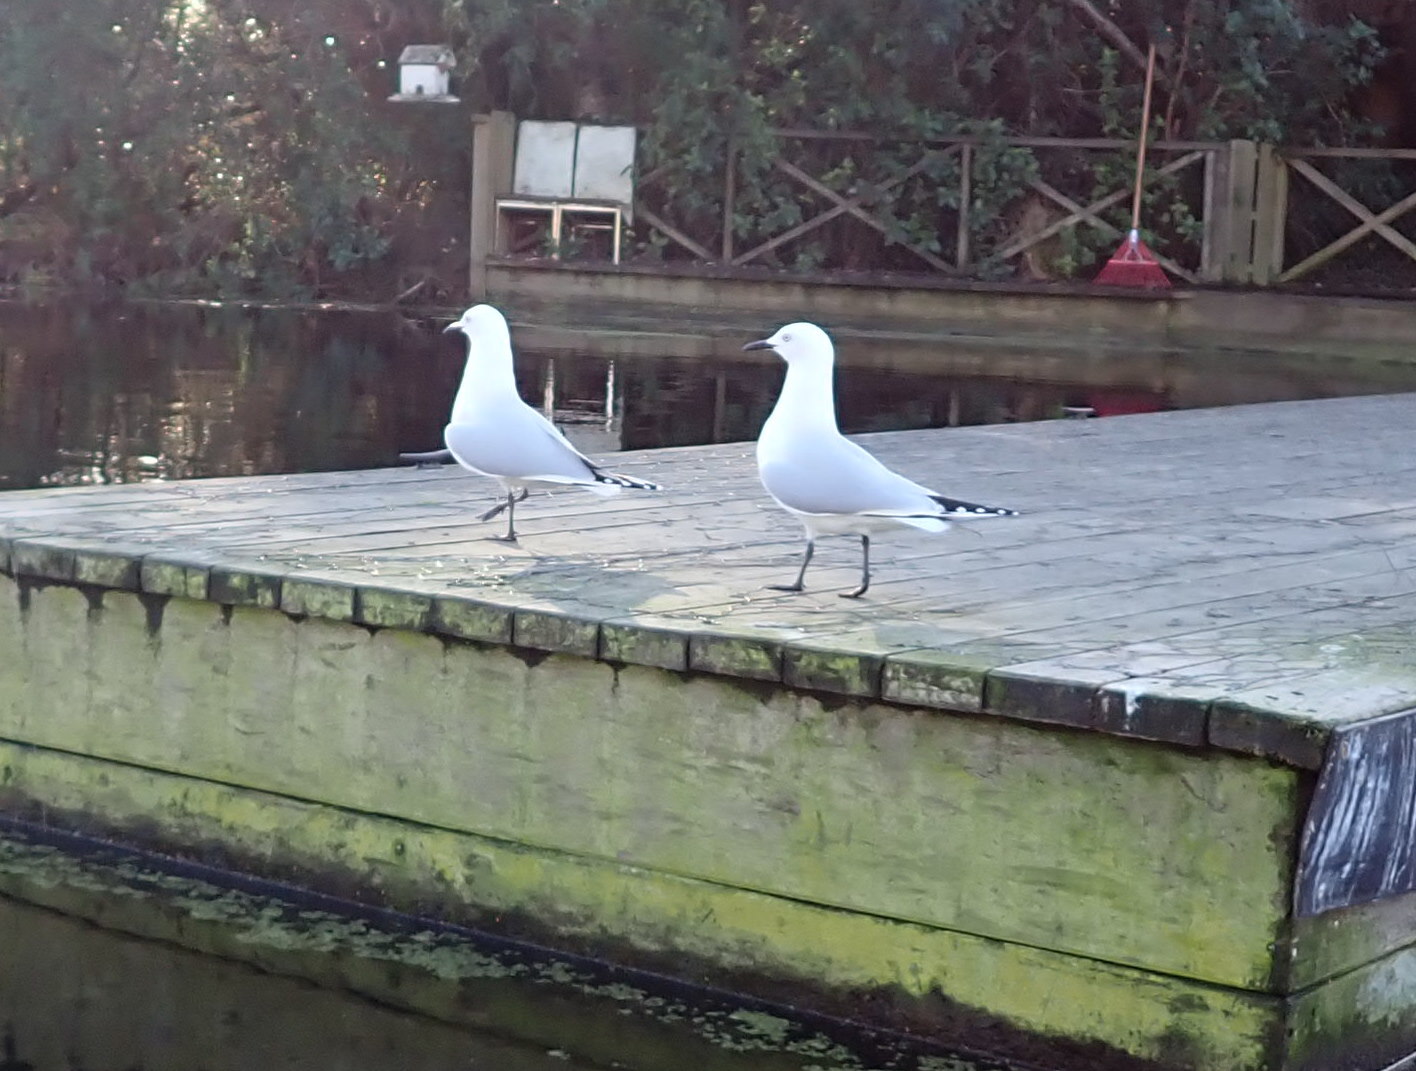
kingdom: Animalia
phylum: Chordata
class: Aves
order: Charadriiformes
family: Laridae
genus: Chroicocephalus
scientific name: Chroicocephalus bulleri
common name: Black-billed gull
